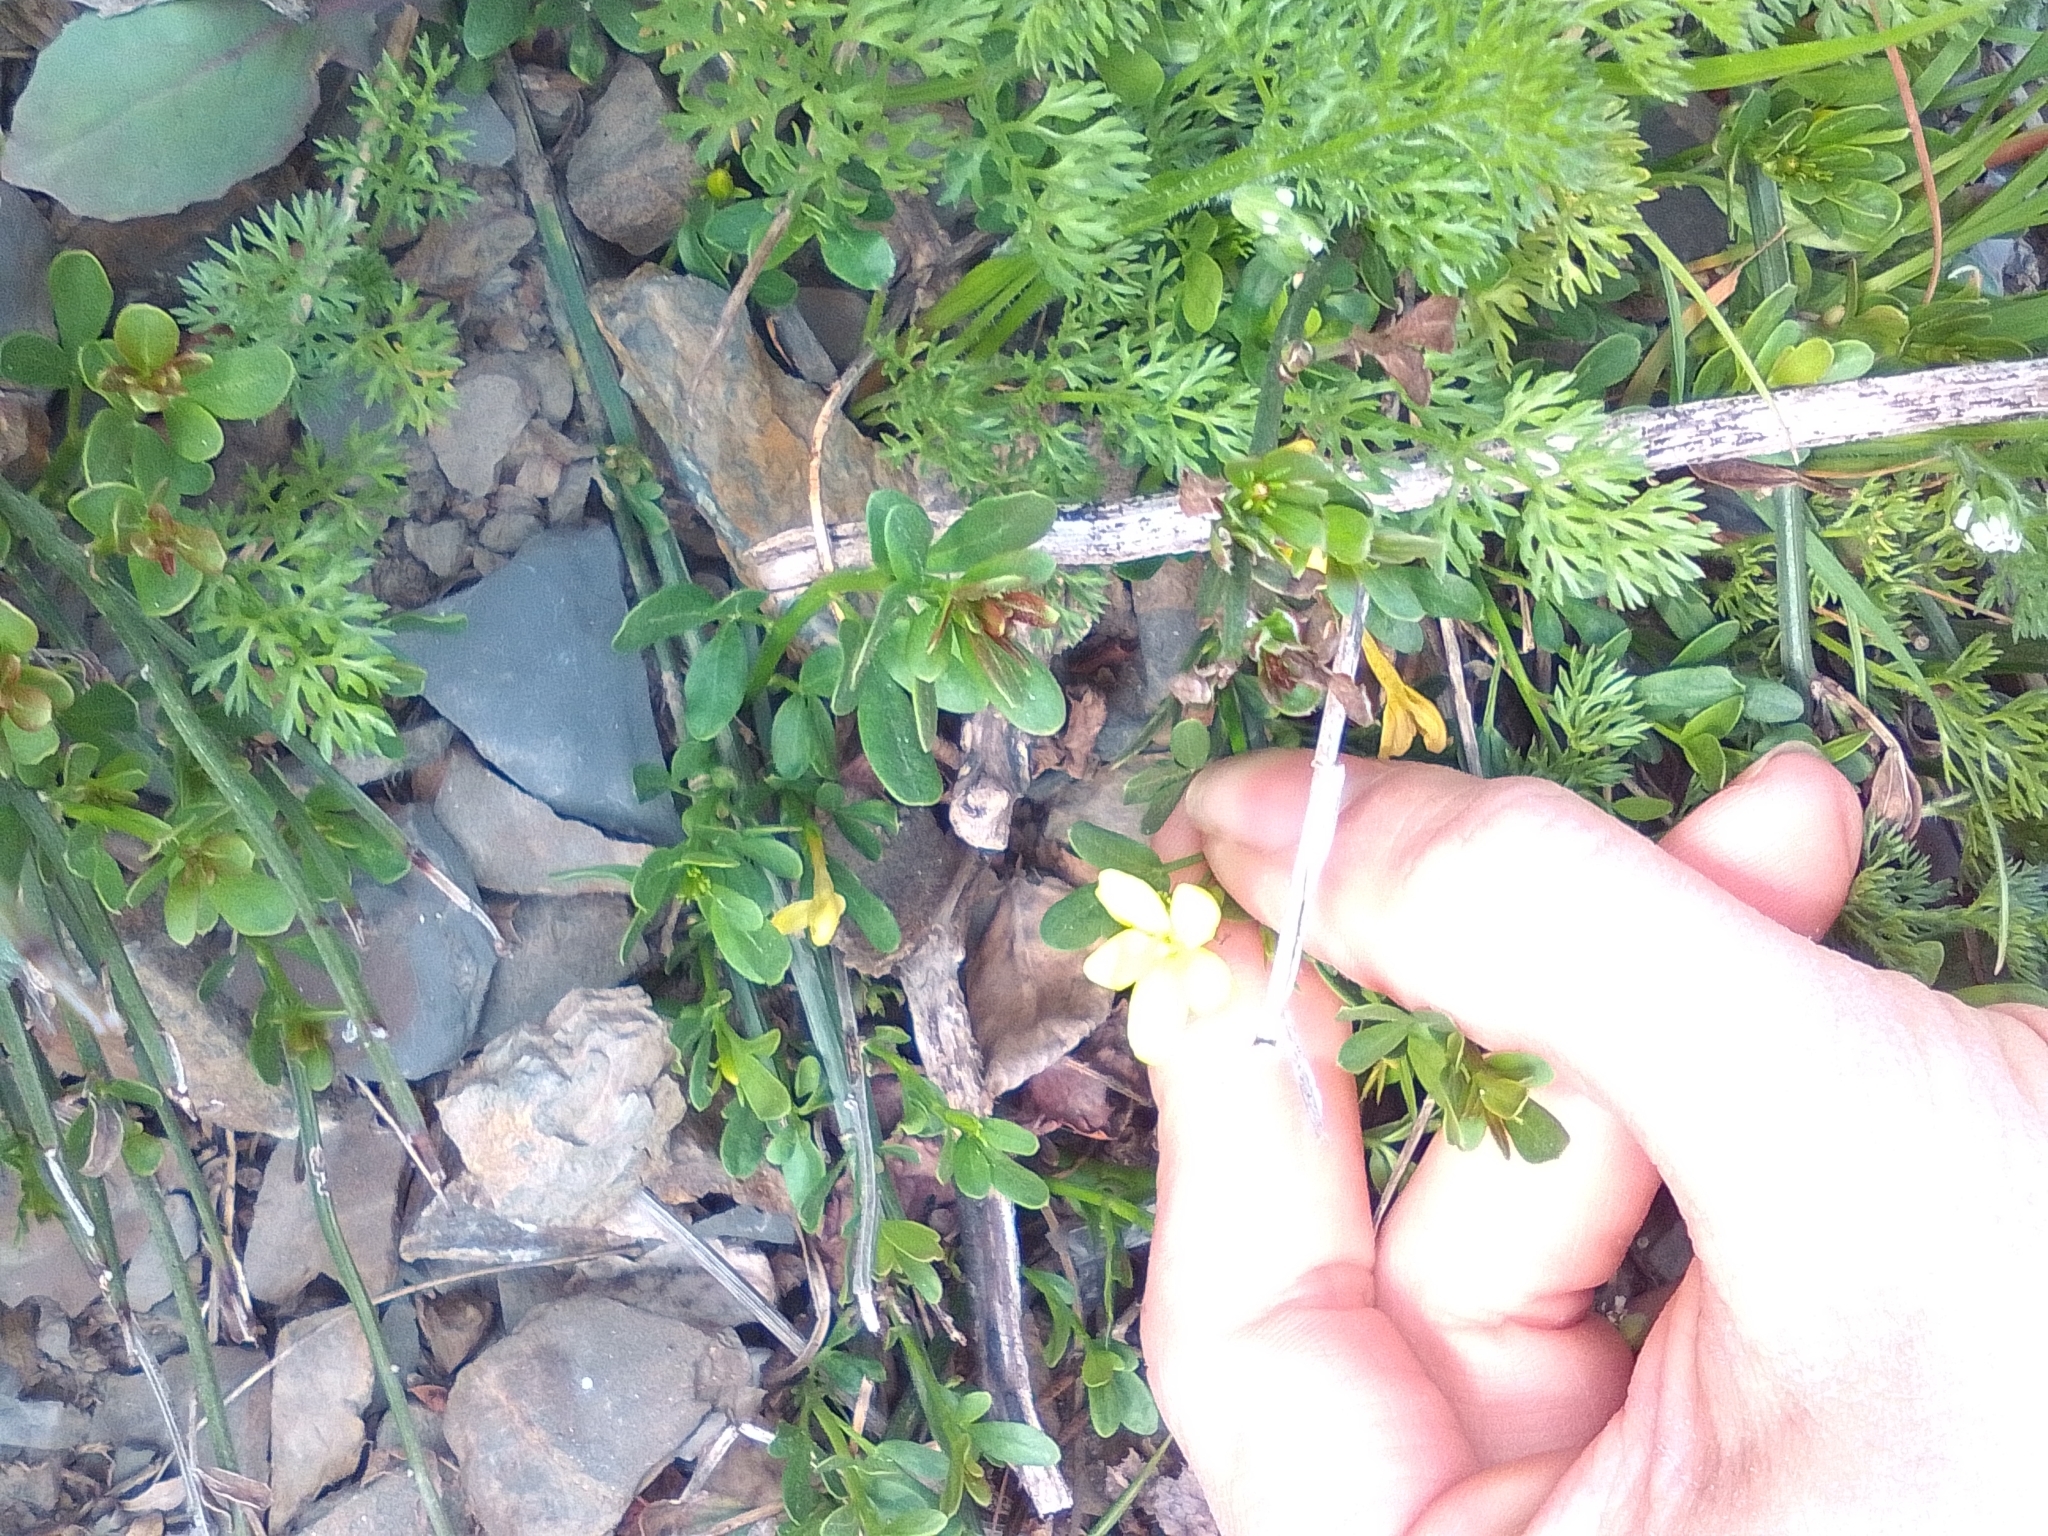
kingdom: Plantae
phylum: Tracheophyta
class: Magnoliopsida
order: Lamiales
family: Oleaceae
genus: Chrysojasminum
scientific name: Chrysojasminum fruticans
